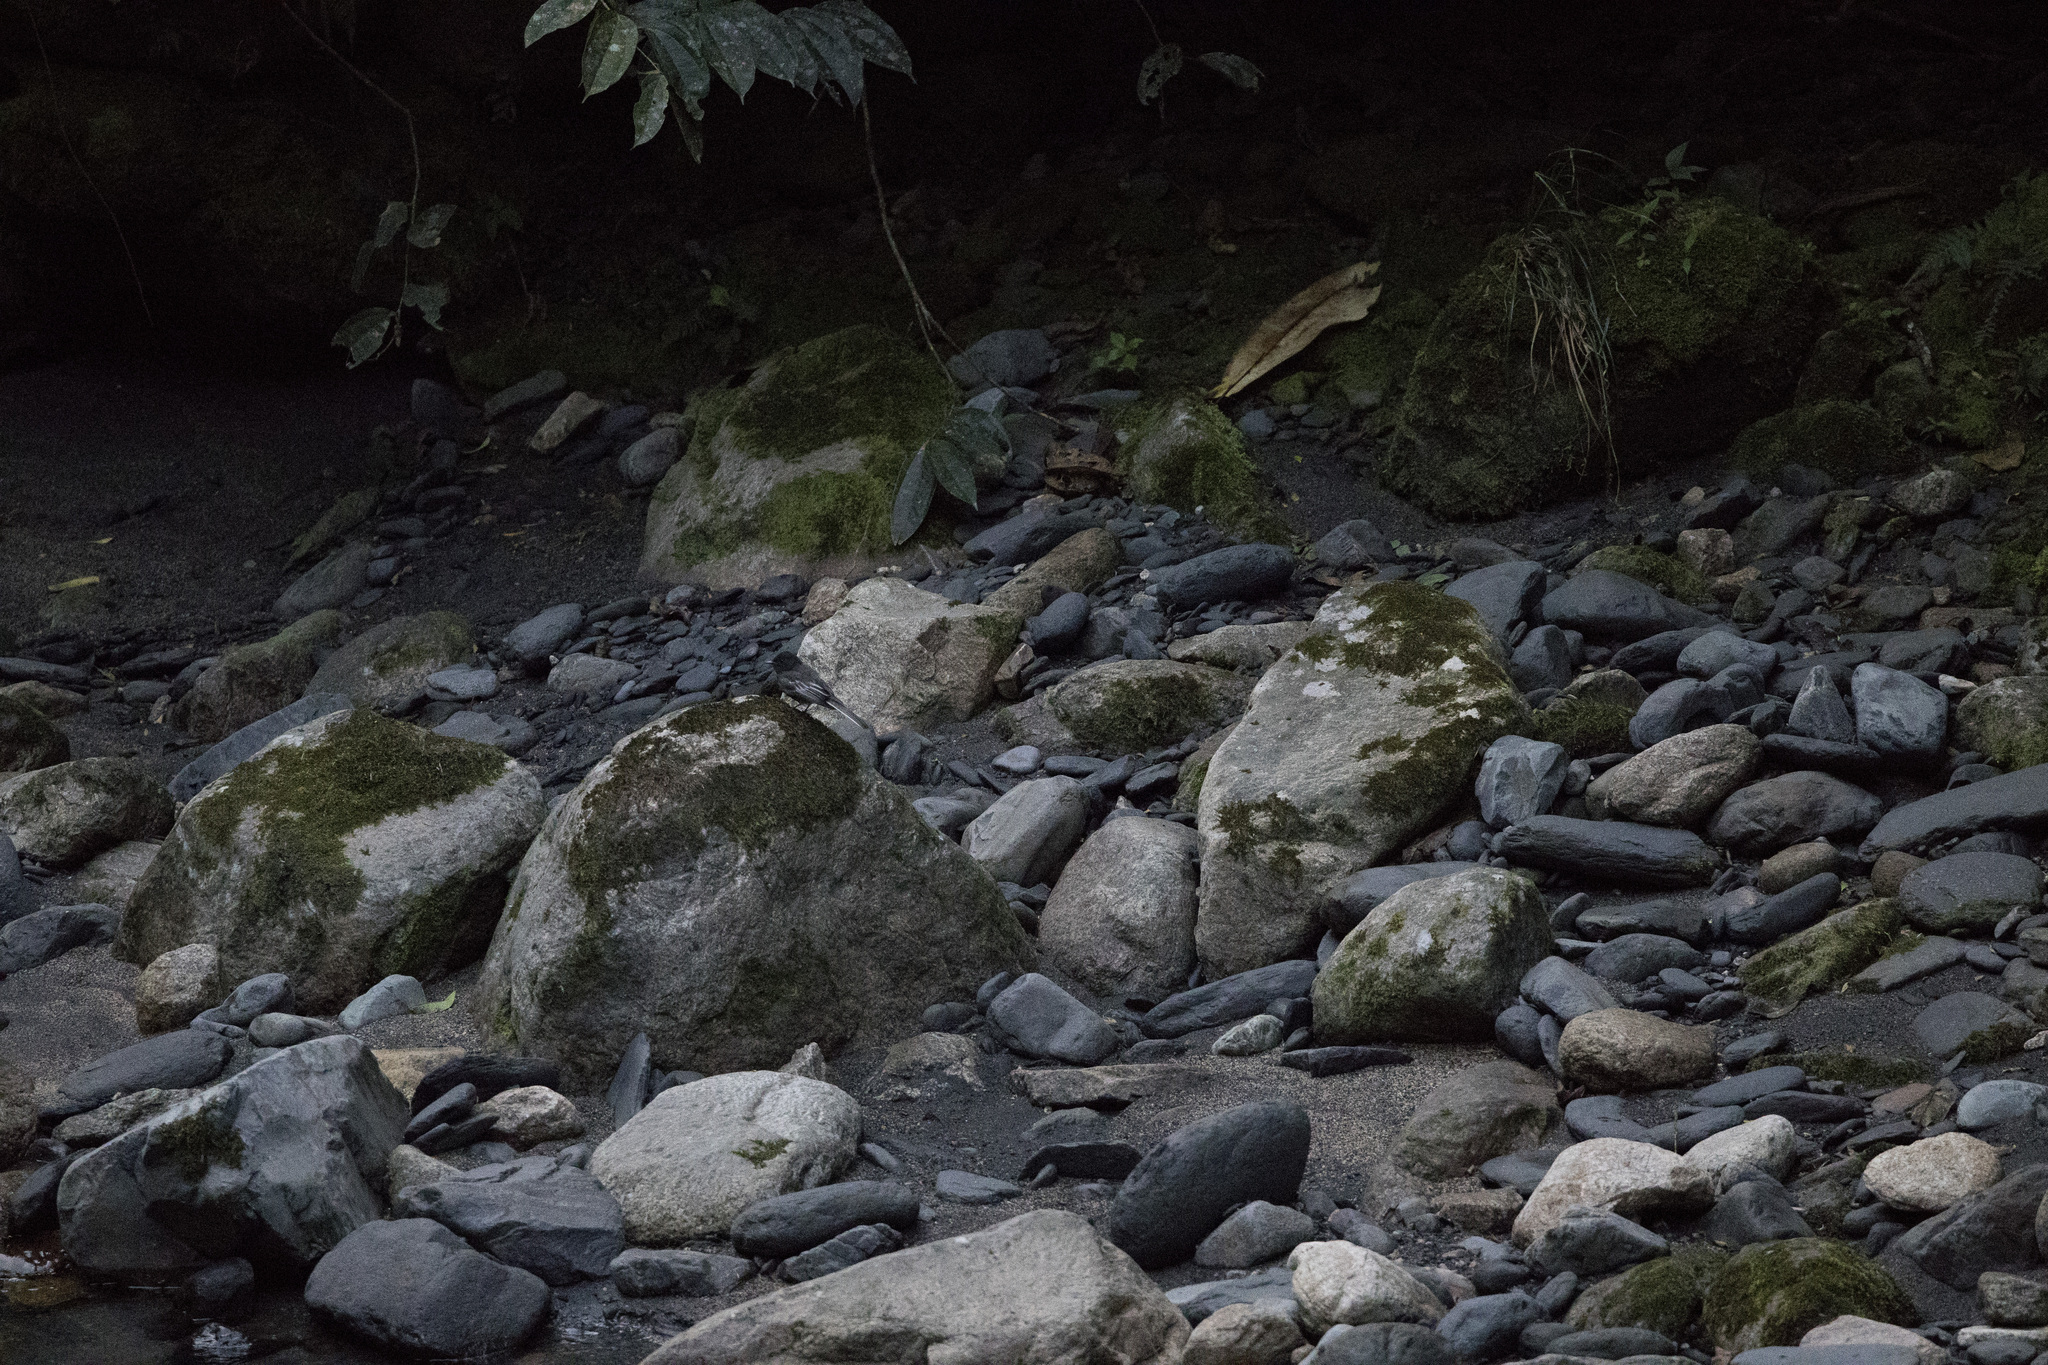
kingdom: Animalia
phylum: Chordata
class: Aves
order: Passeriformes
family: Tyrannidae
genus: Sayornis
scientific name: Sayornis nigricans
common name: Black phoebe
